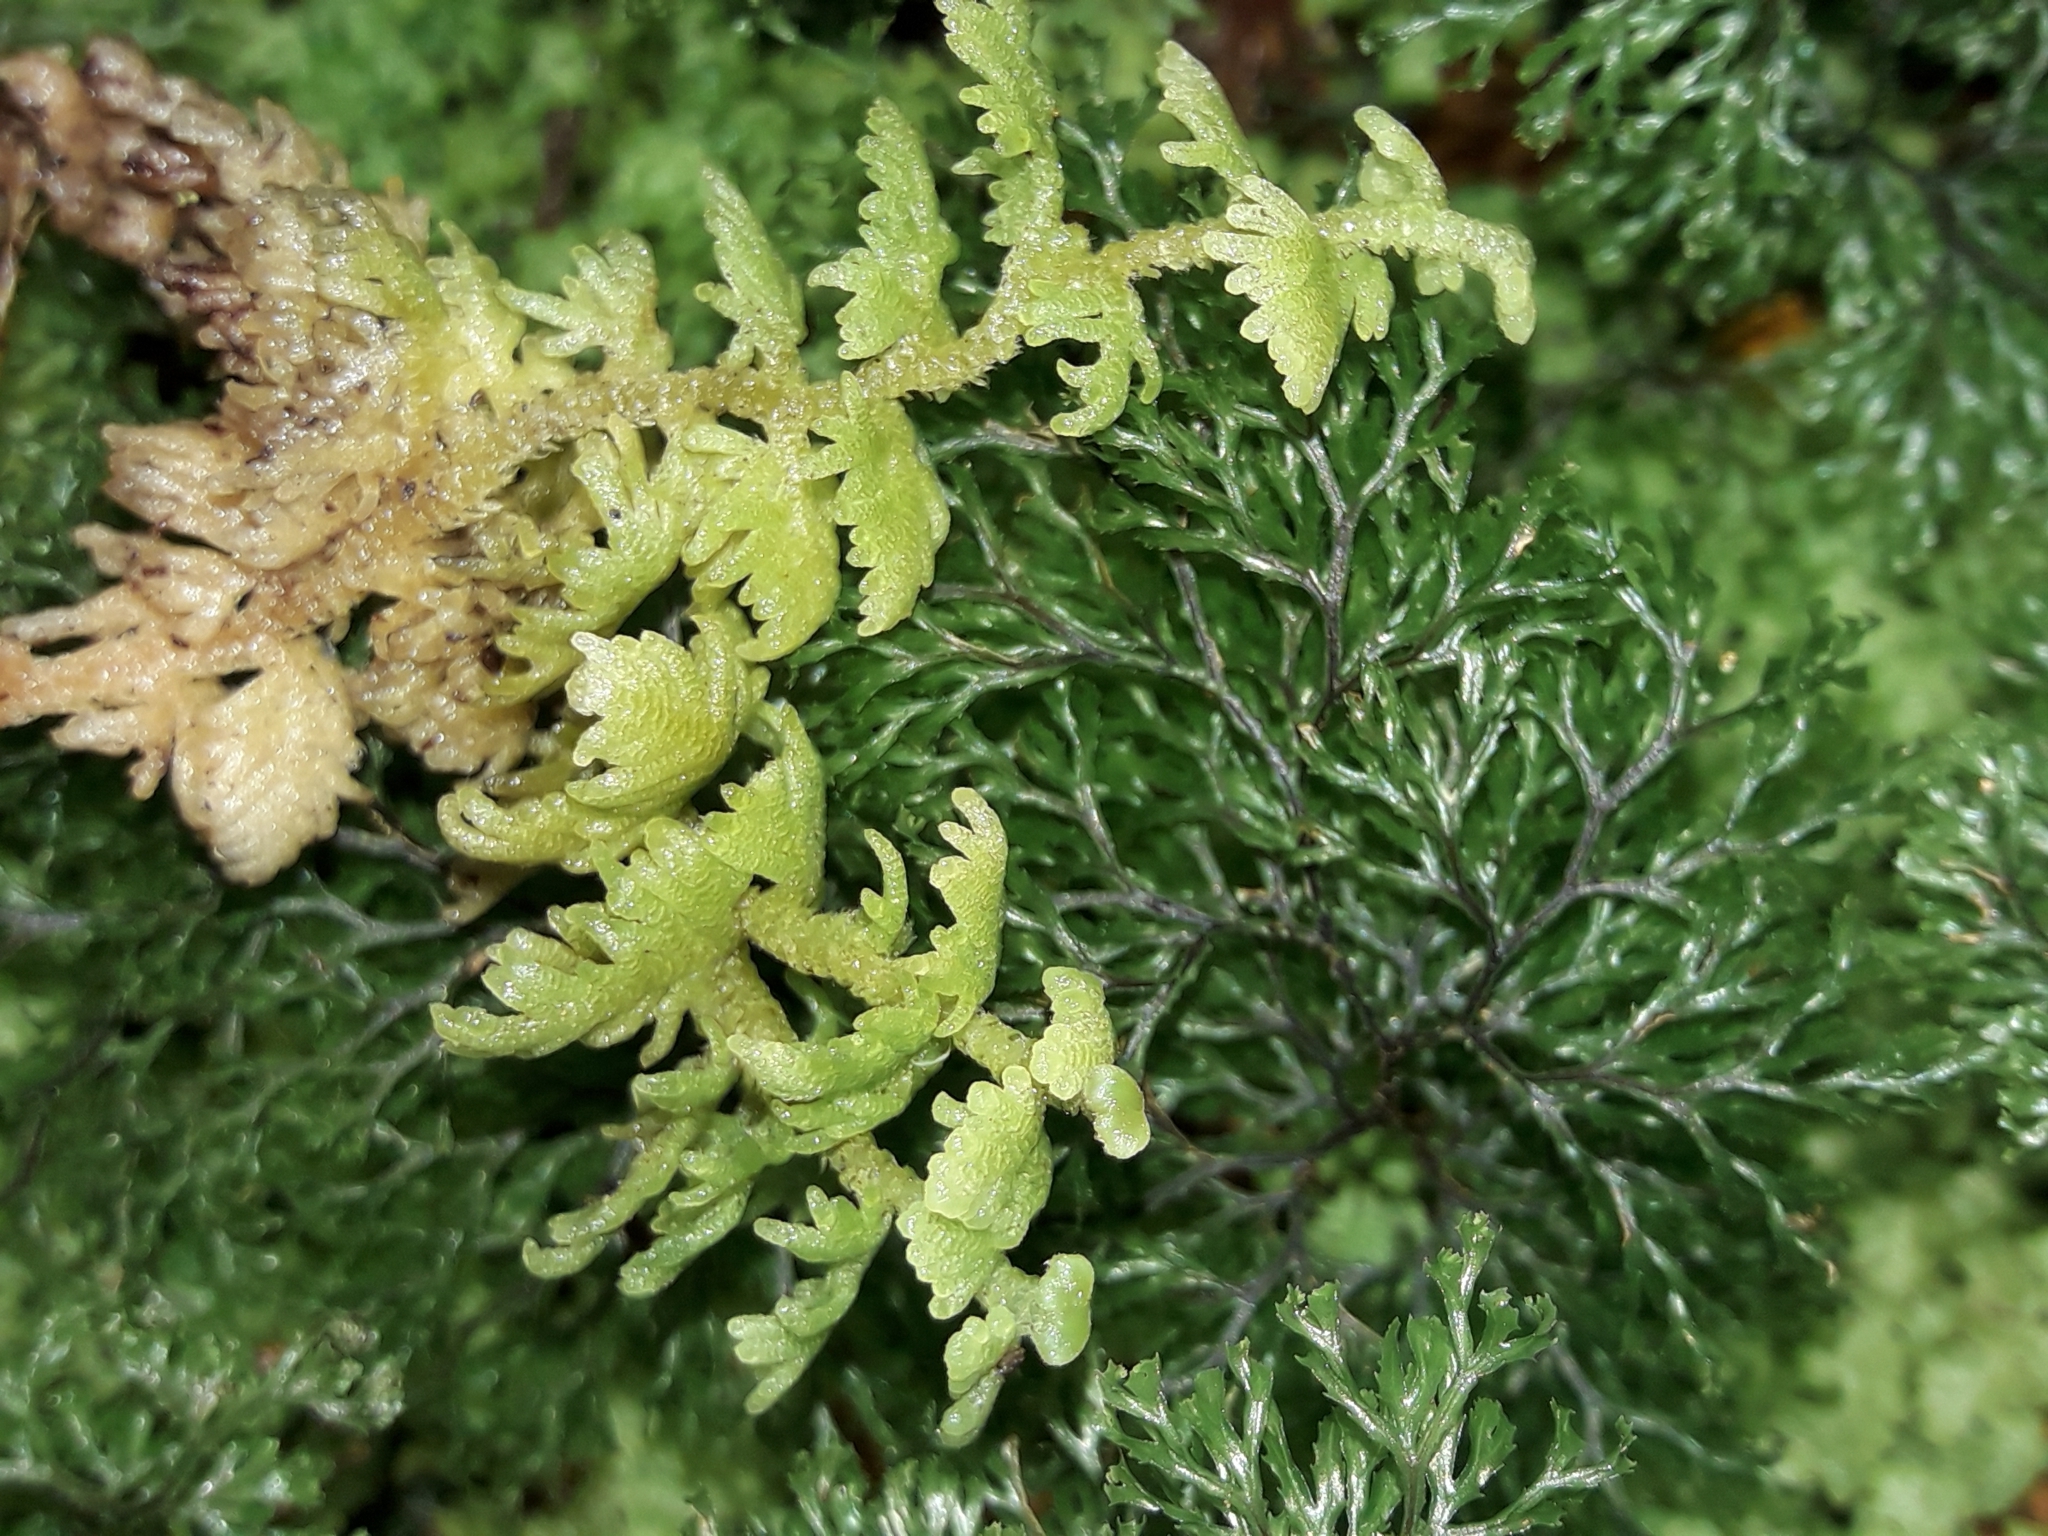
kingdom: Plantae
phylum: Marchantiophyta
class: Jungermanniopsida
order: Jungermanniales
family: Trichocoleaceae
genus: Trichocolea
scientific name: Trichocolea mollissima
